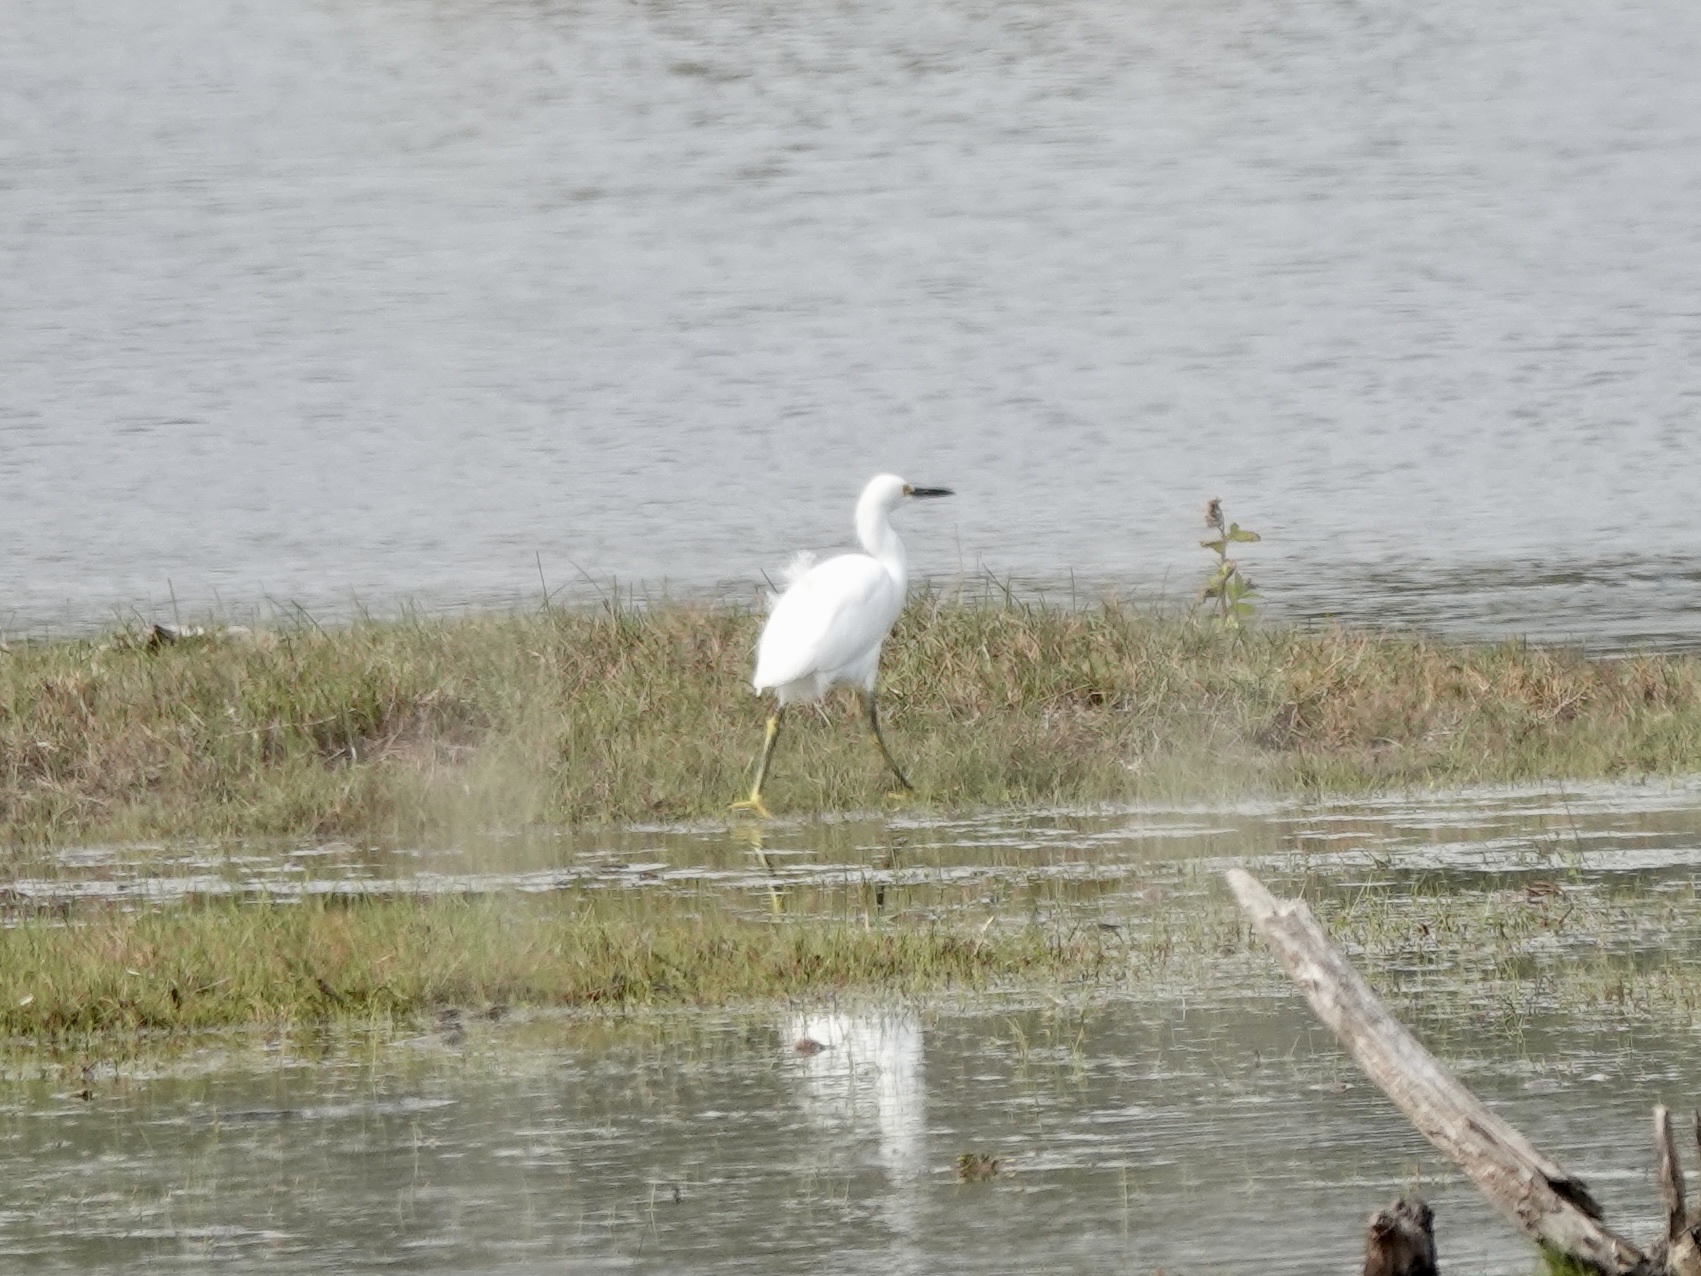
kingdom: Animalia
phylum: Chordata
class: Aves
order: Pelecaniformes
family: Ardeidae
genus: Egretta
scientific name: Egretta thula
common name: Snowy egret
